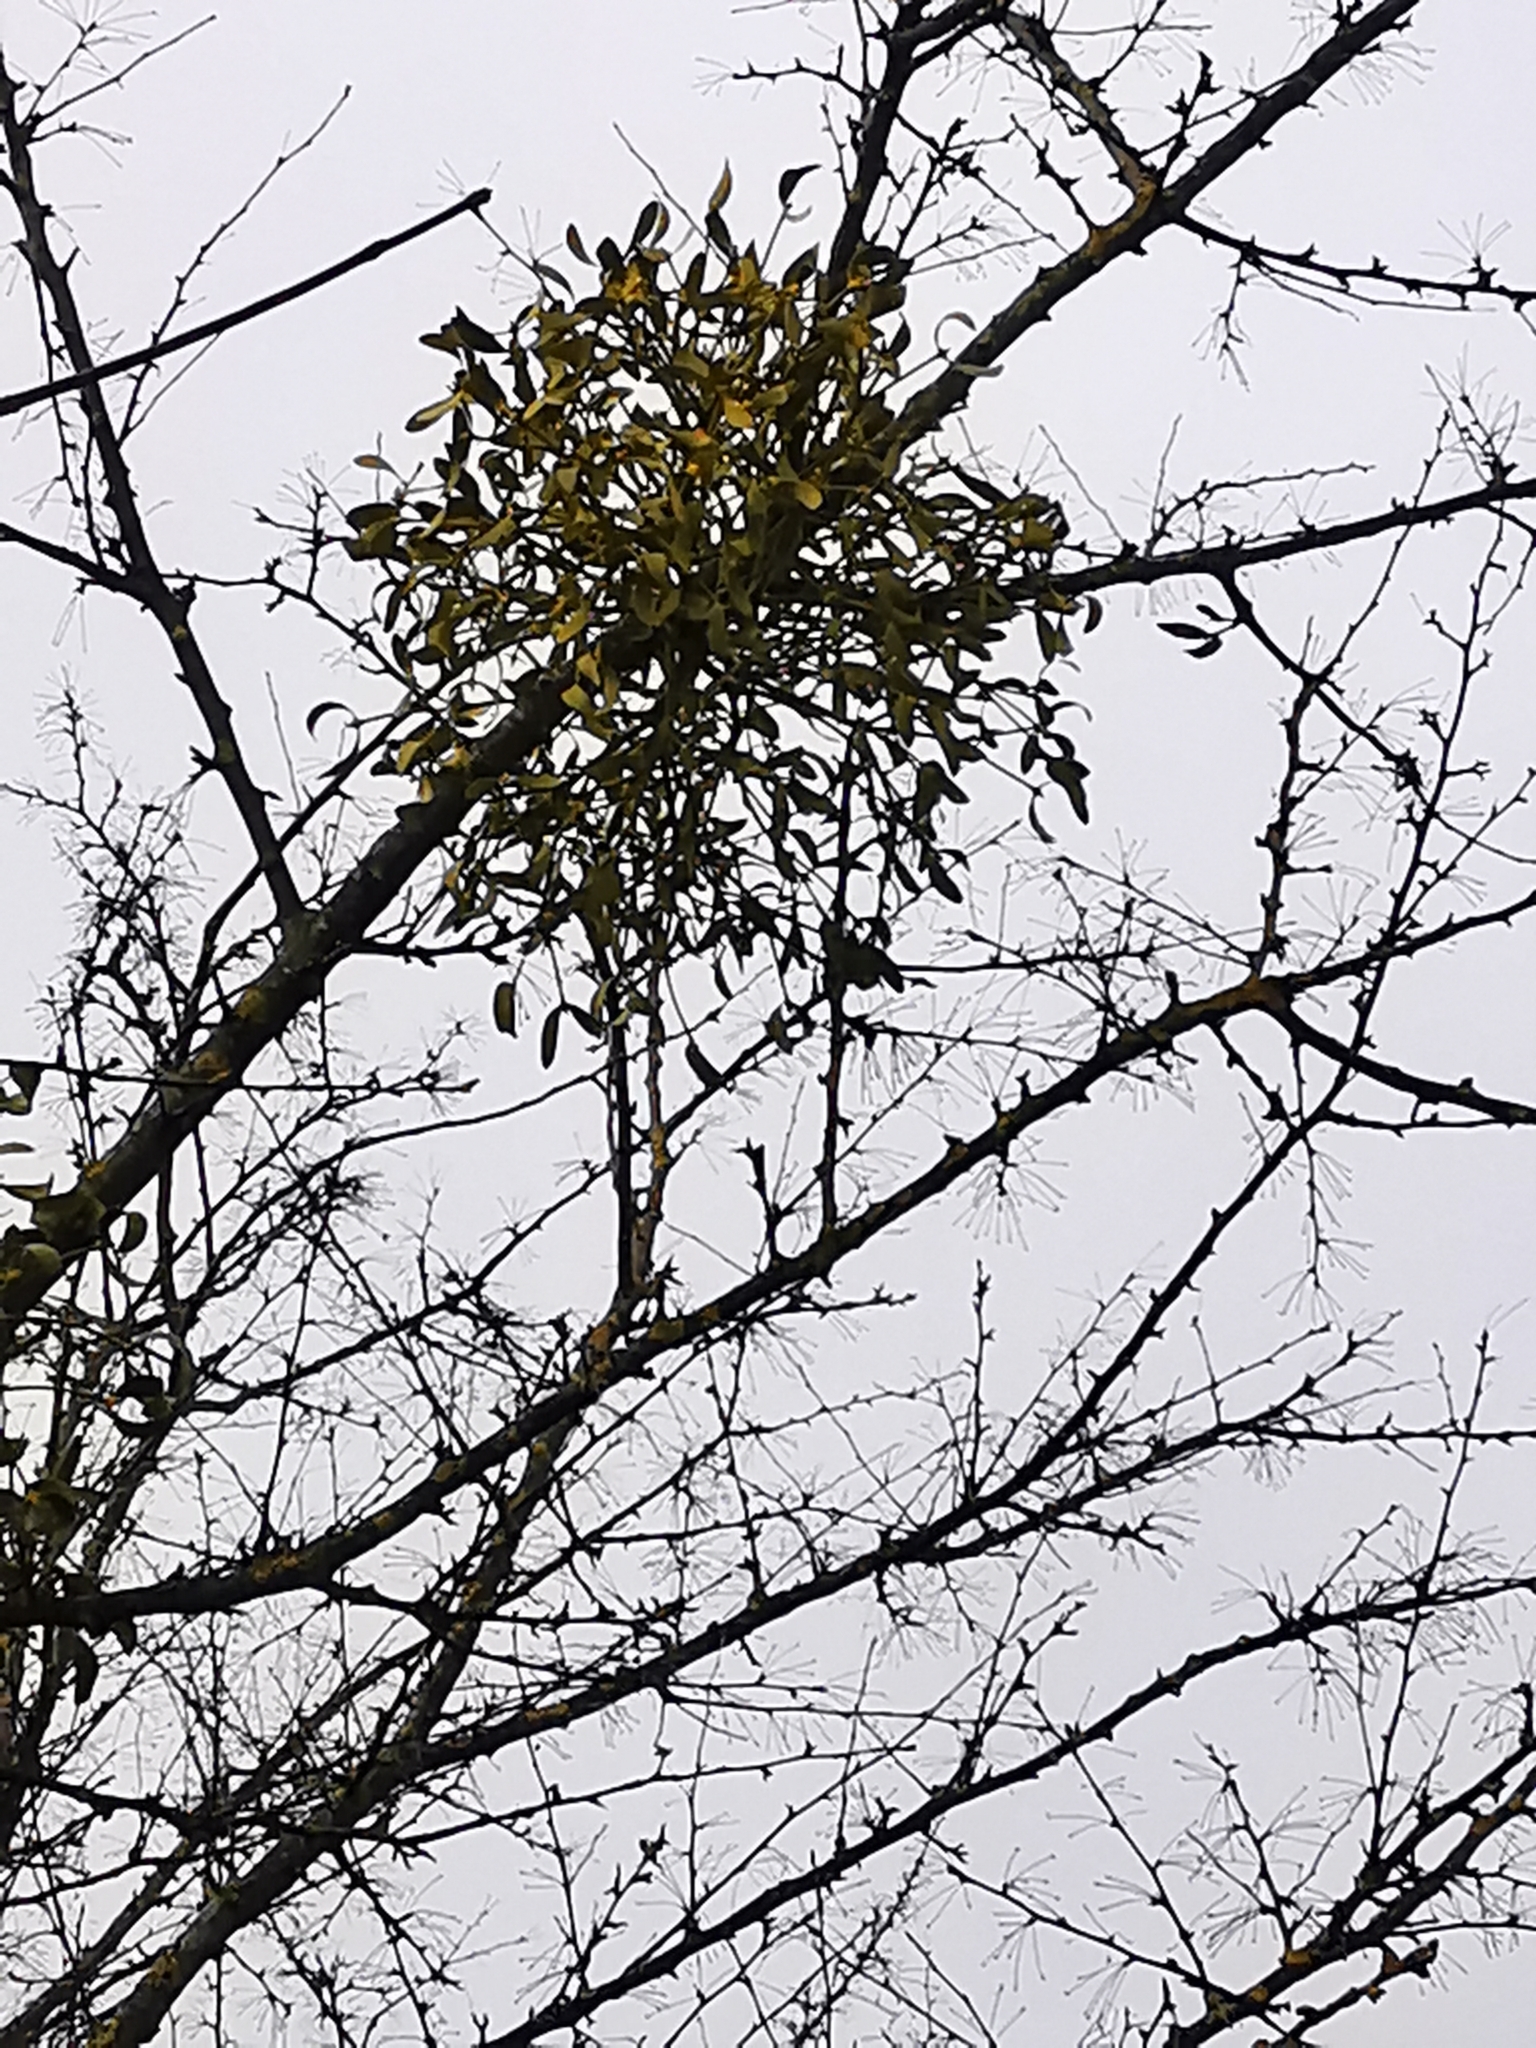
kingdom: Plantae
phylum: Tracheophyta
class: Magnoliopsida
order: Santalales
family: Viscaceae
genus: Viscum
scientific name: Viscum album
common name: Mistletoe
